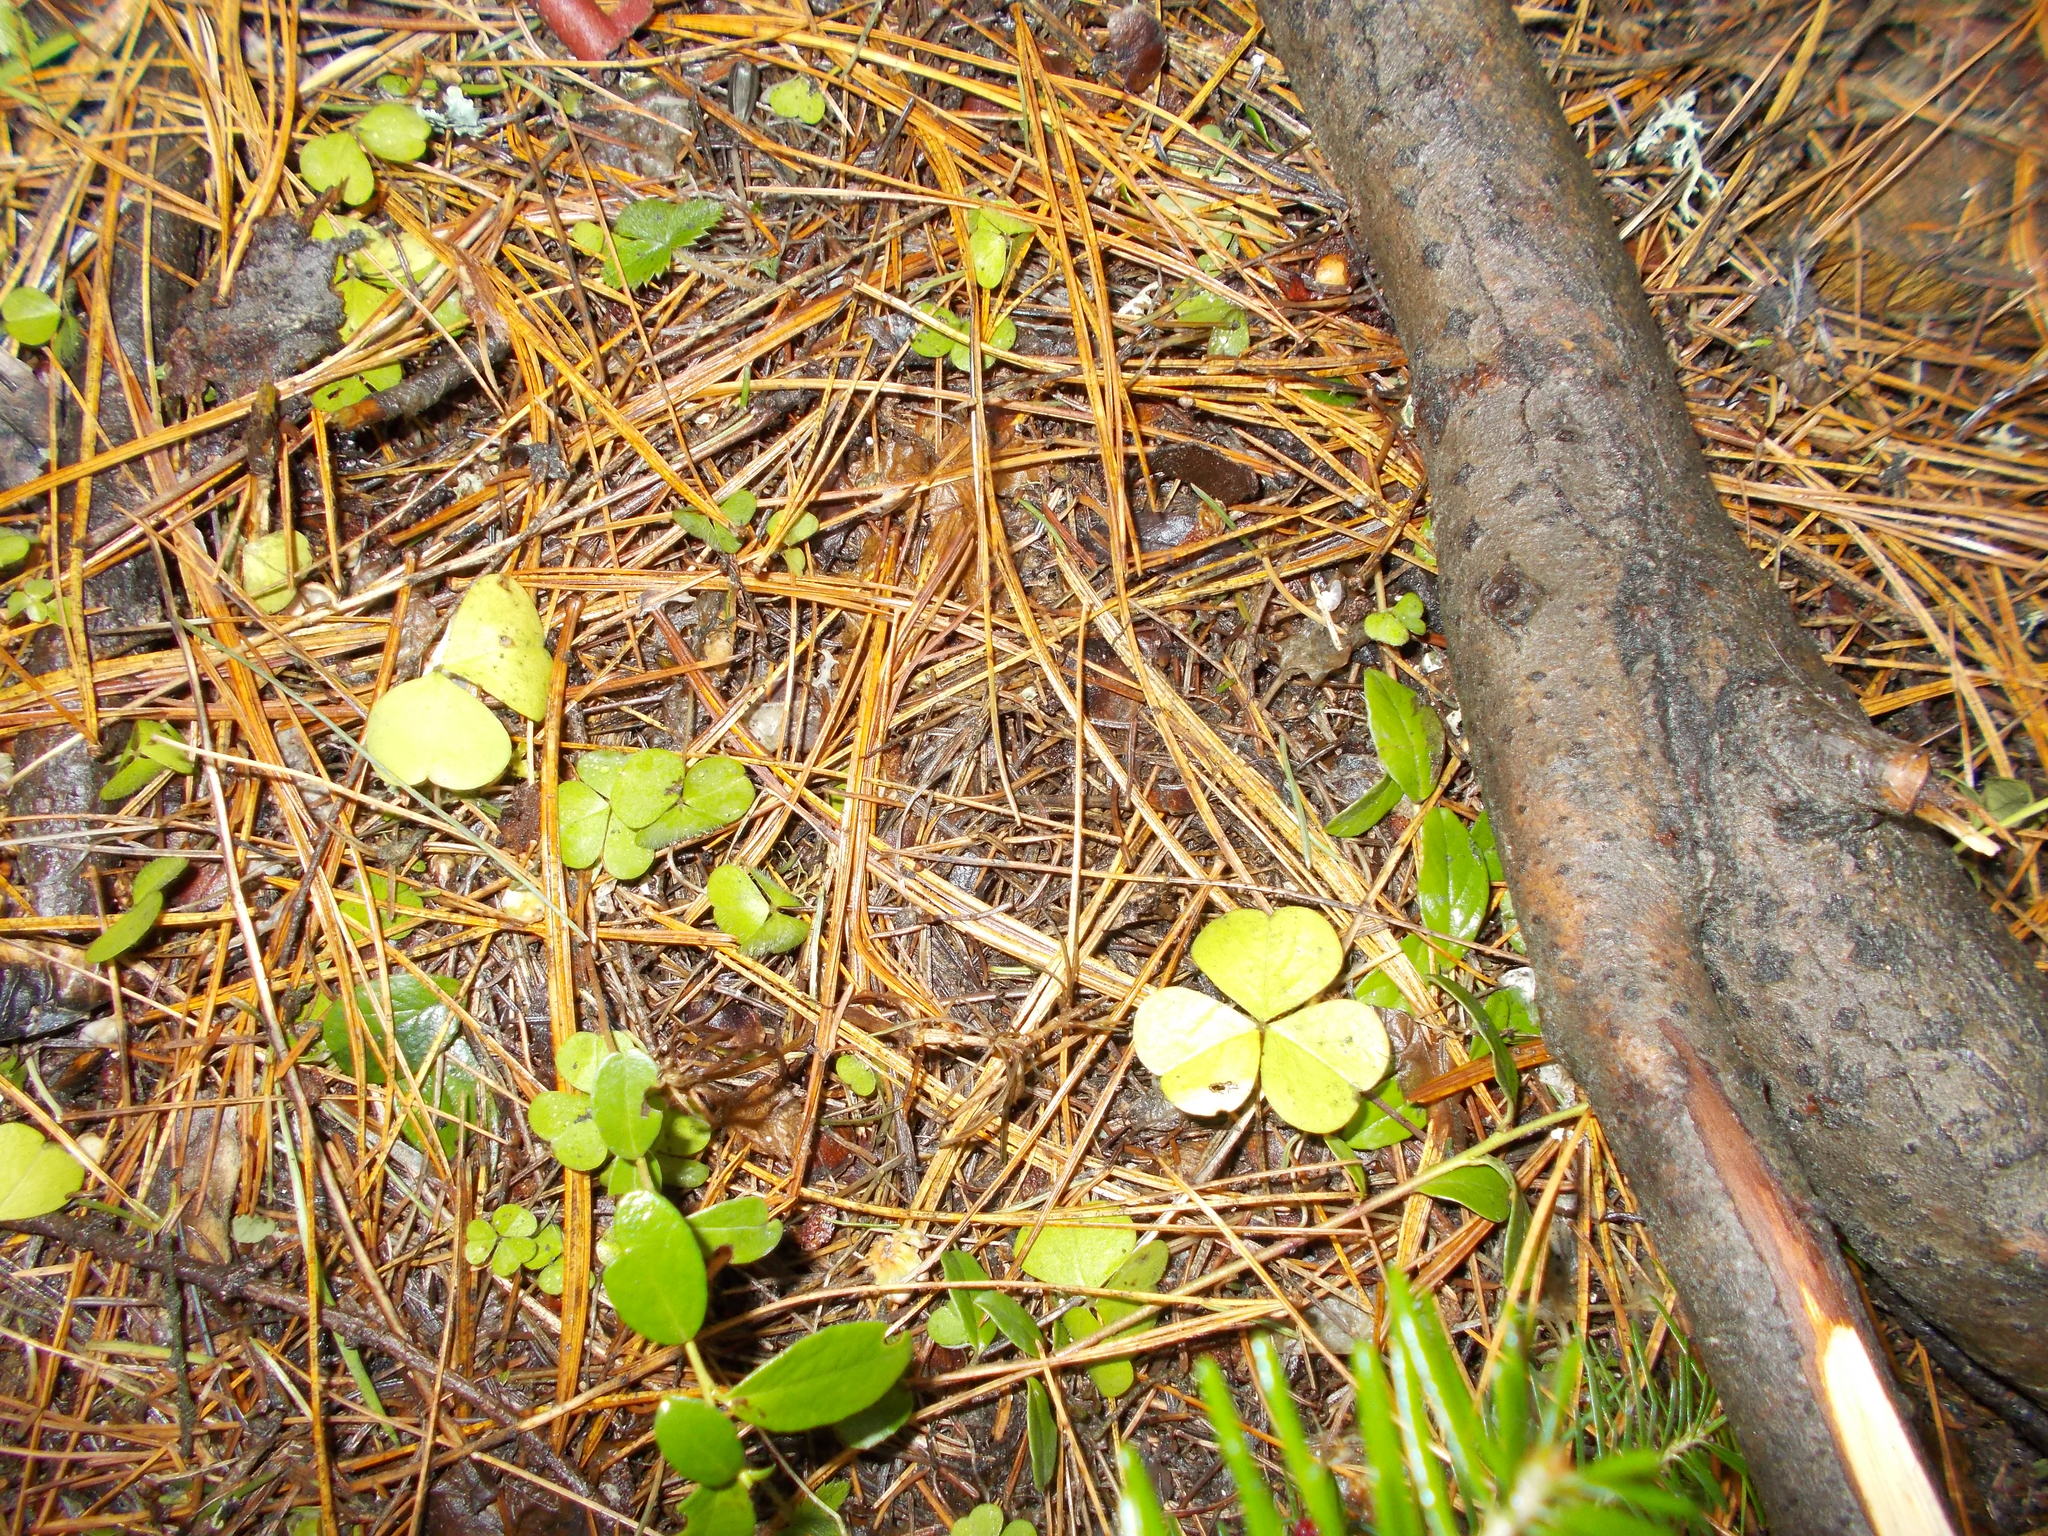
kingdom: Plantae
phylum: Tracheophyta
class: Magnoliopsida
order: Oxalidales
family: Oxalidaceae
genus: Oxalis
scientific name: Oxalis acetosella
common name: Wood-sorrel
